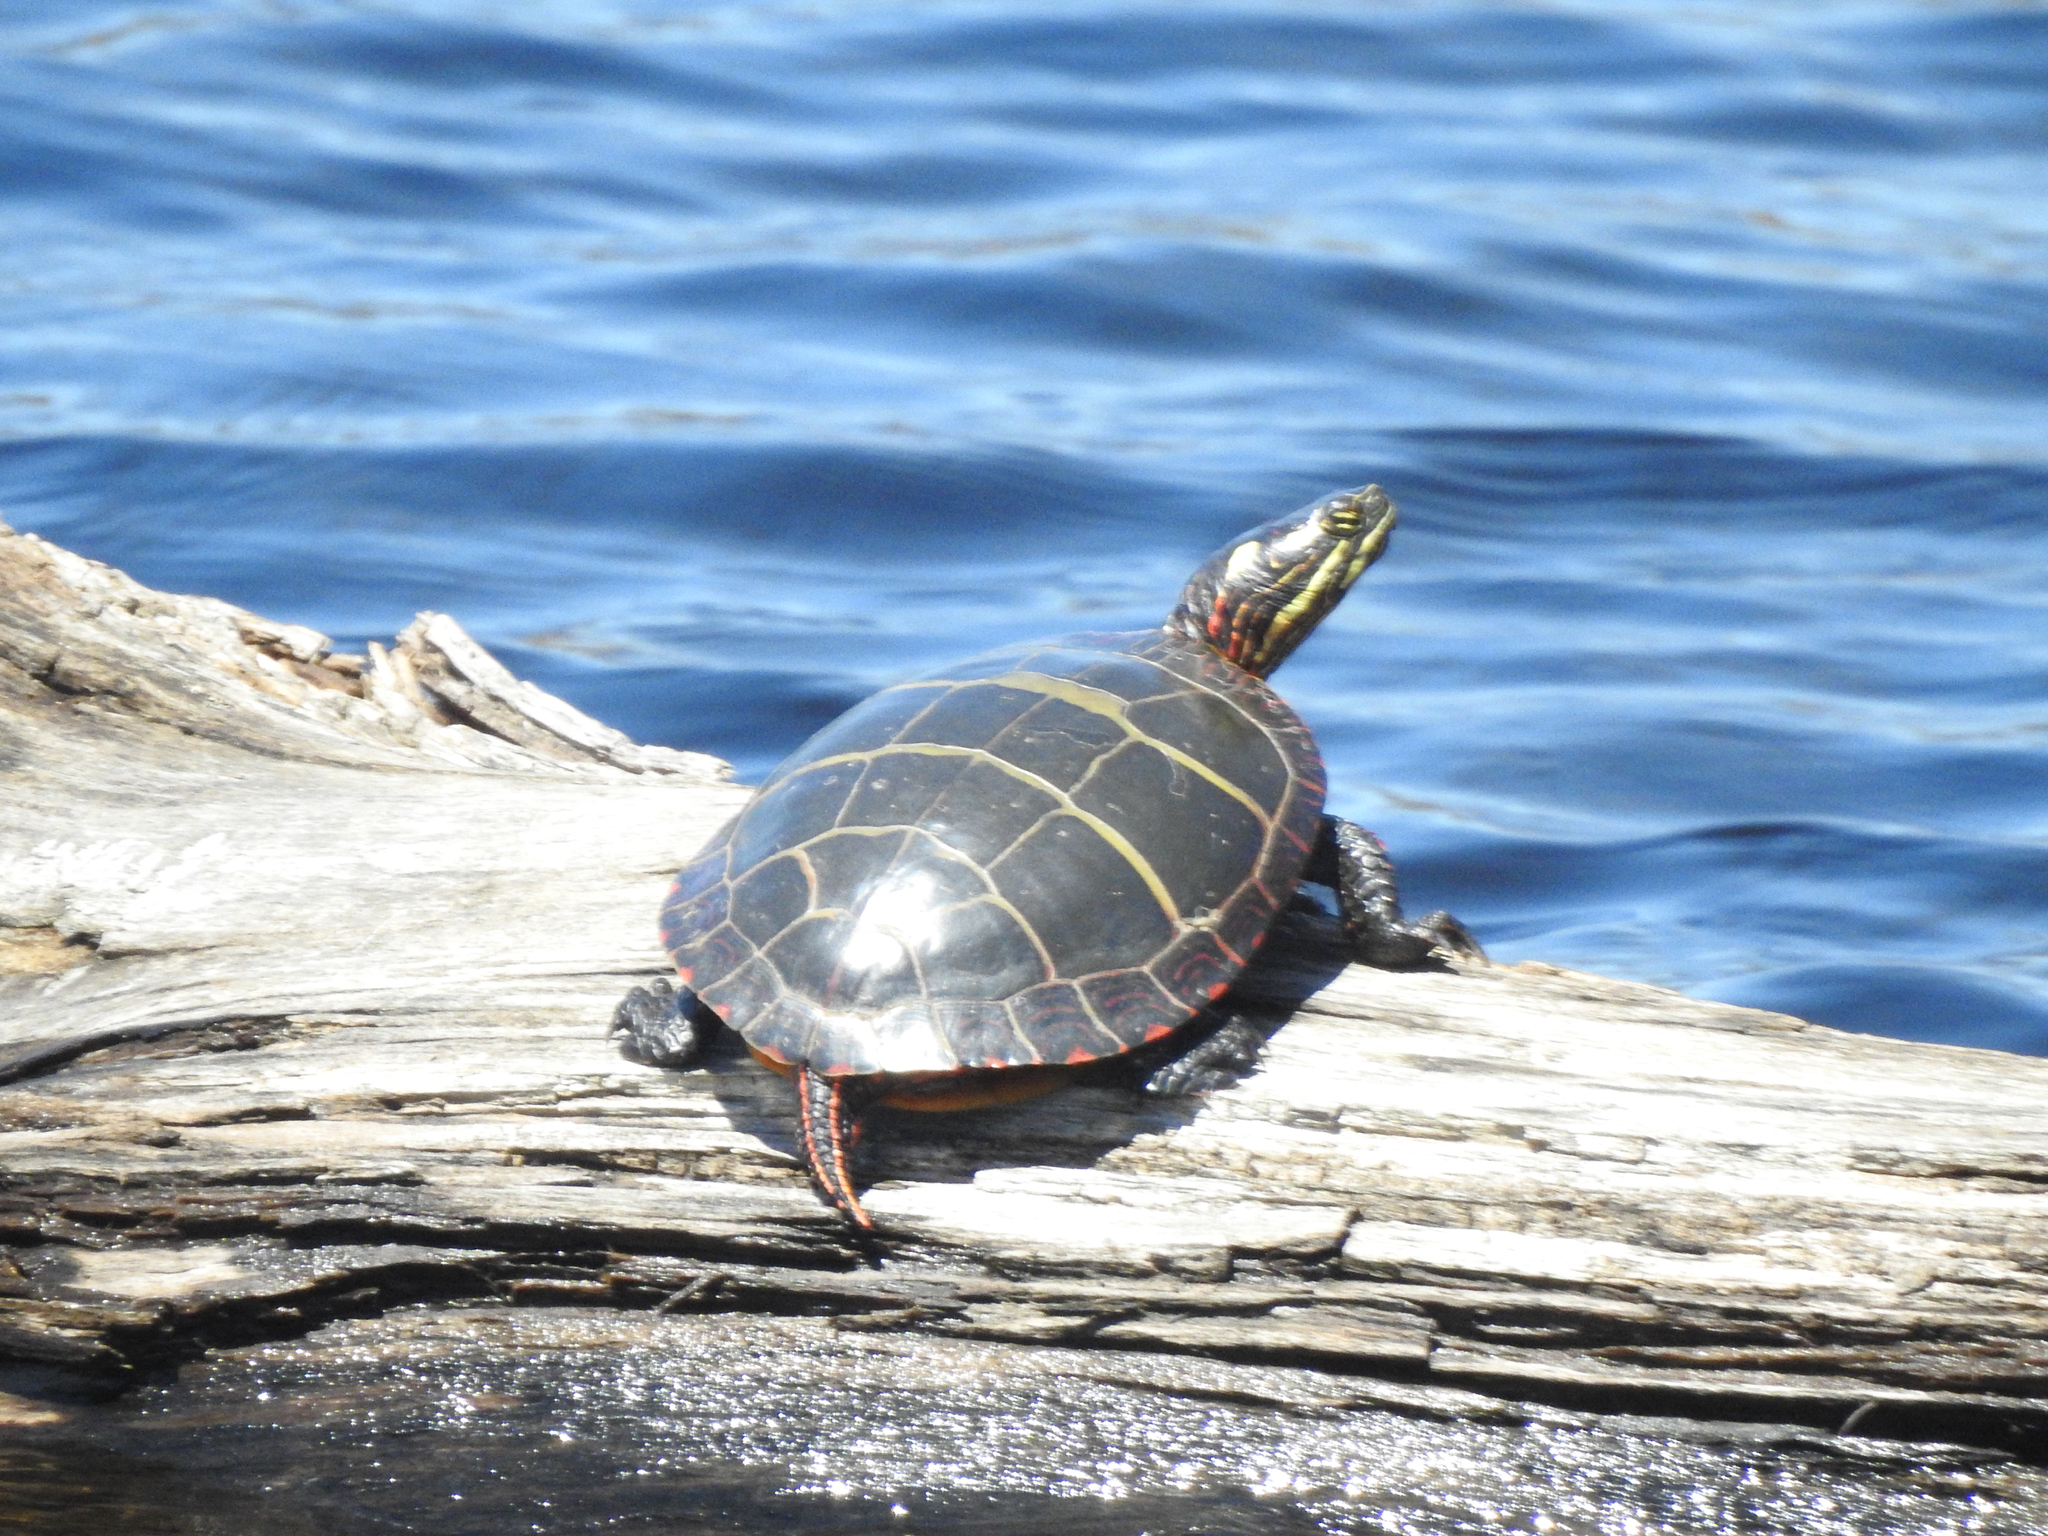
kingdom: Animalia
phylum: Chordata
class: Testudines
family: Emydidae
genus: Chrysemys
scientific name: Chrysemys picta
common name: Painted turtle
